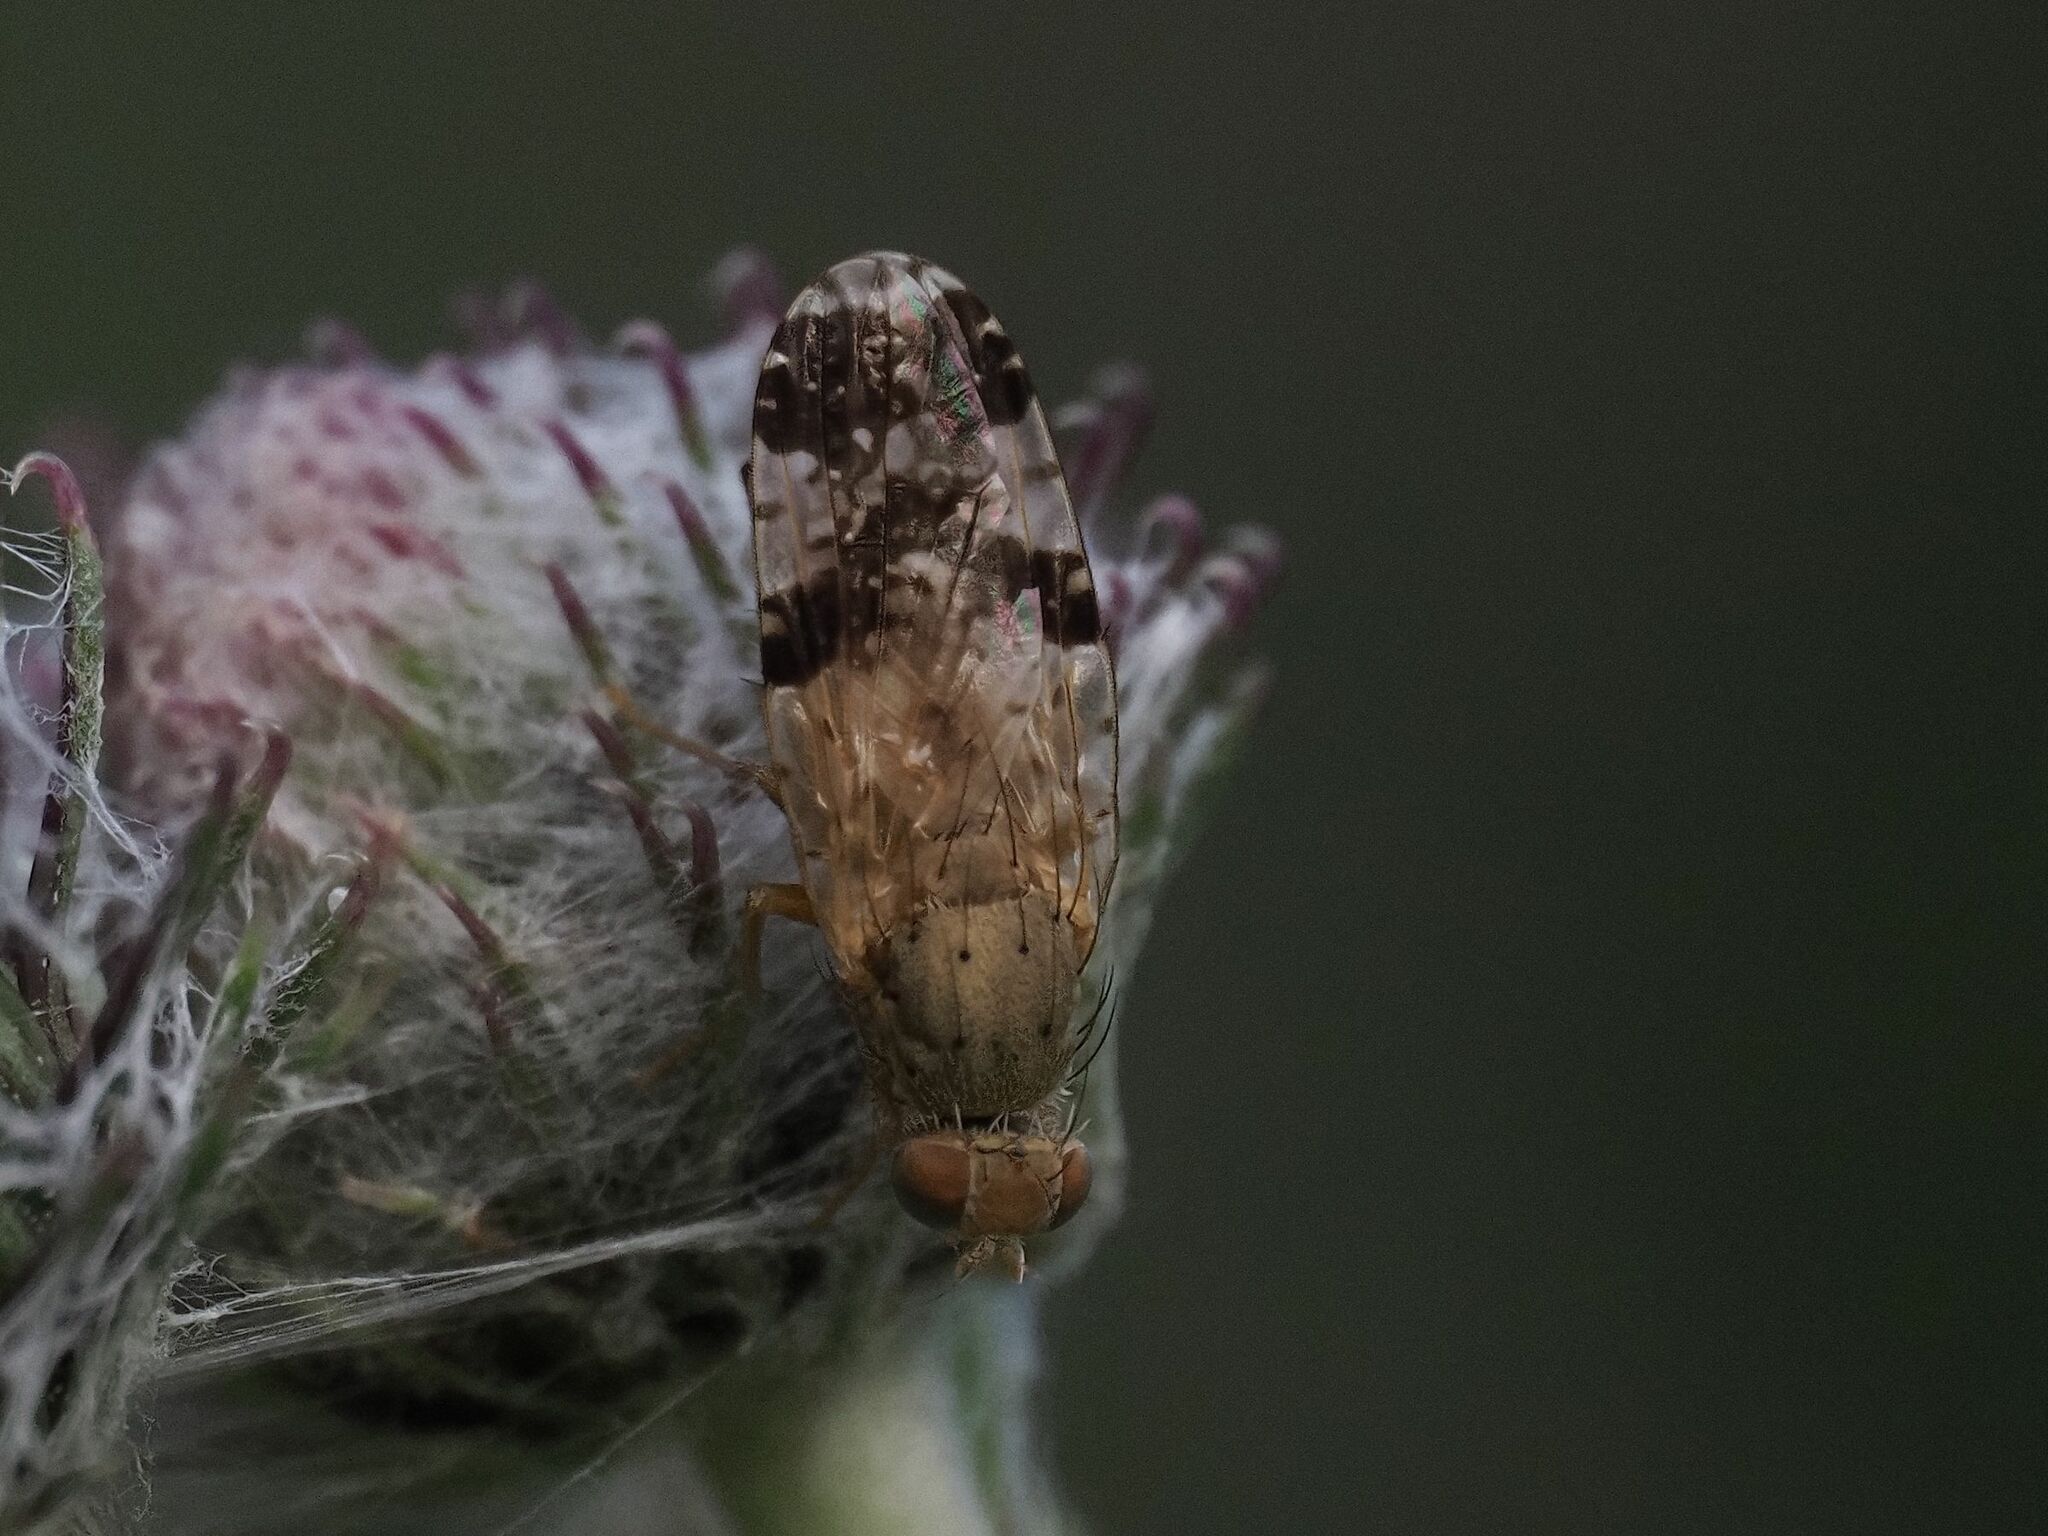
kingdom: Animalia
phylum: Arthropoda
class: Insecta
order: Diptera
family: Tephritidae
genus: Tephritis
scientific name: Tephritis bardanae
